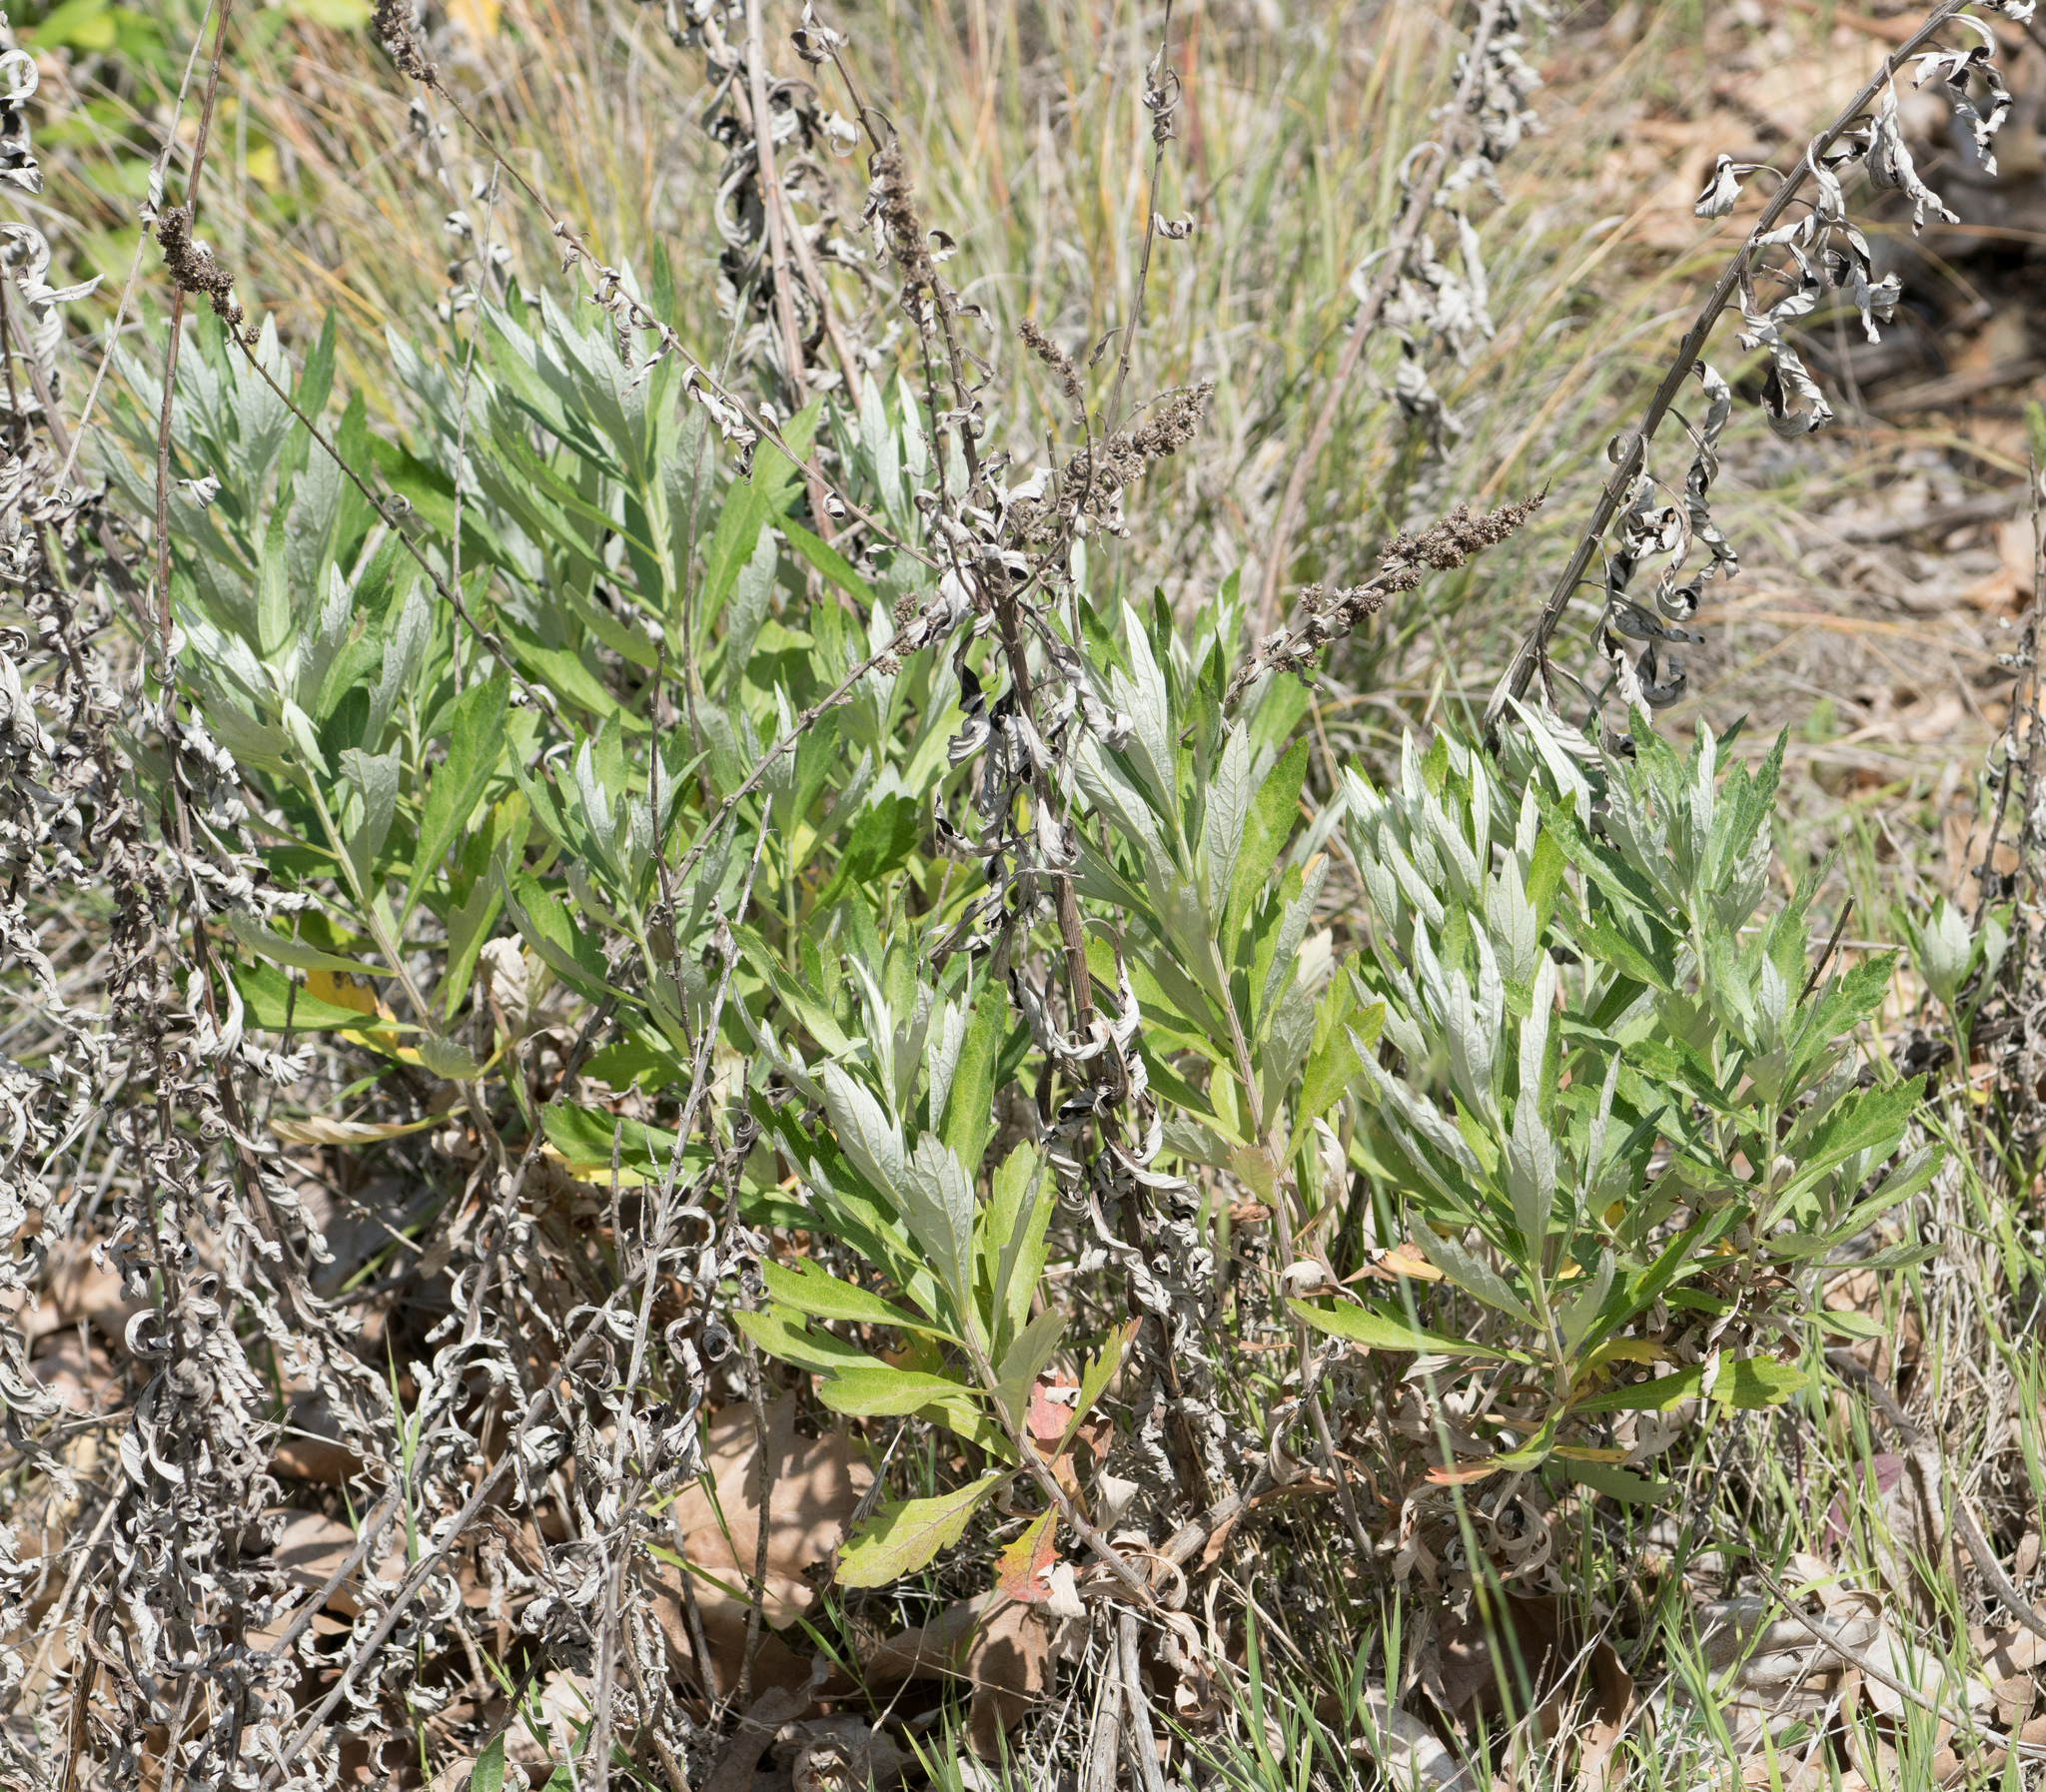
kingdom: Plantae
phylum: Tracheophyta
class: Magnoliopsida
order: Asterales
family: Asteraceae
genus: Artemisia
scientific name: Artemisia douglasiana
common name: Northwest mugwort
